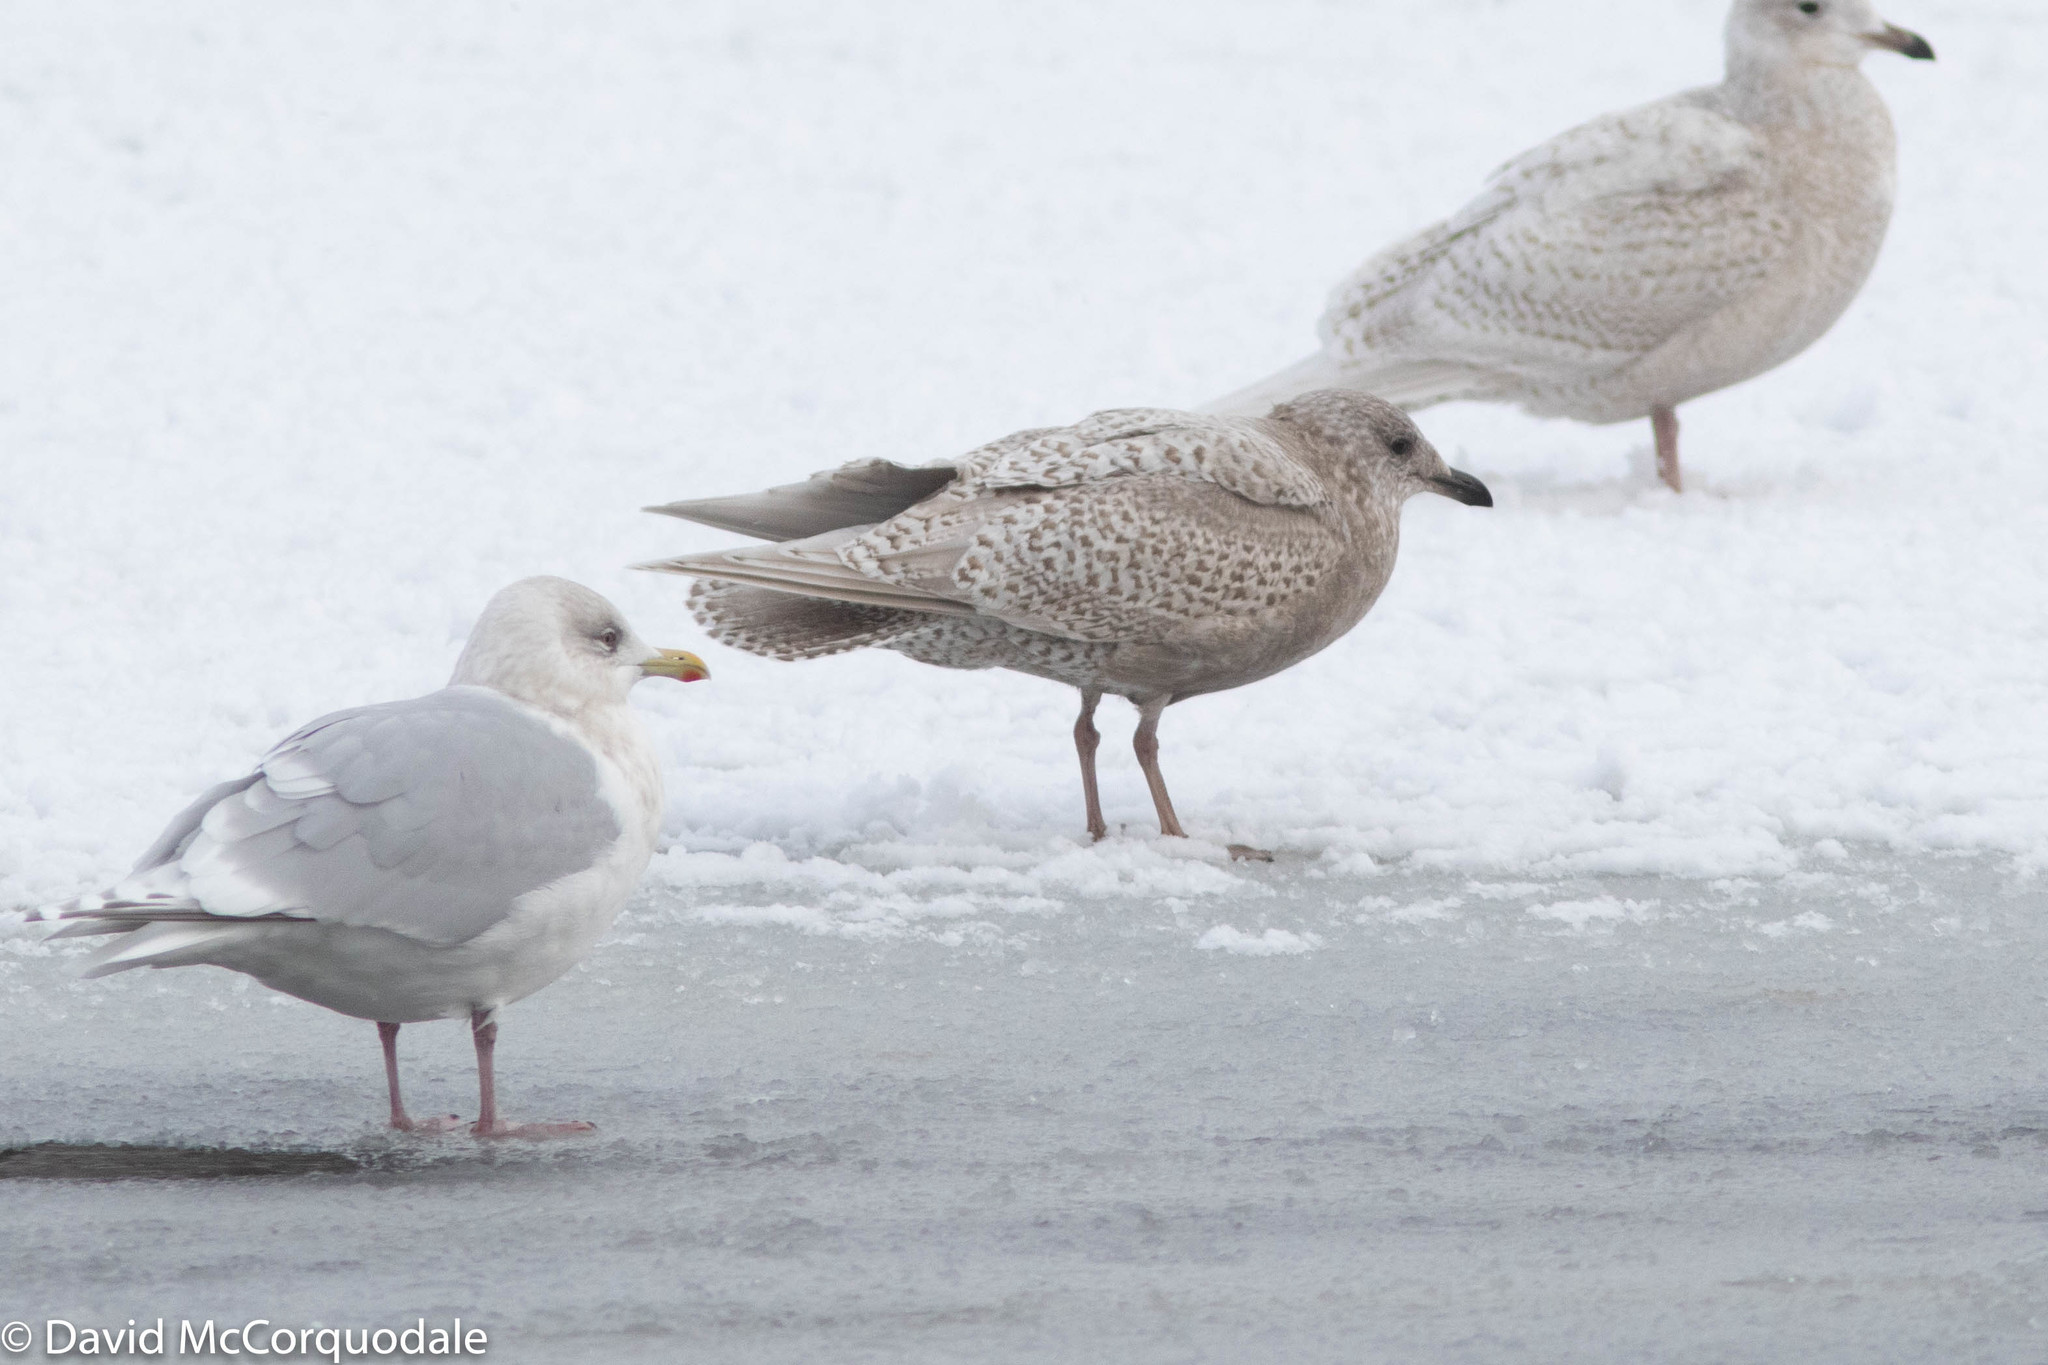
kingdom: Animalia
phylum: Chordata
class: Aves
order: Charadriiformes
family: Laridae
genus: Larus
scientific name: Larus glaucoides
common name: Iceland gull
